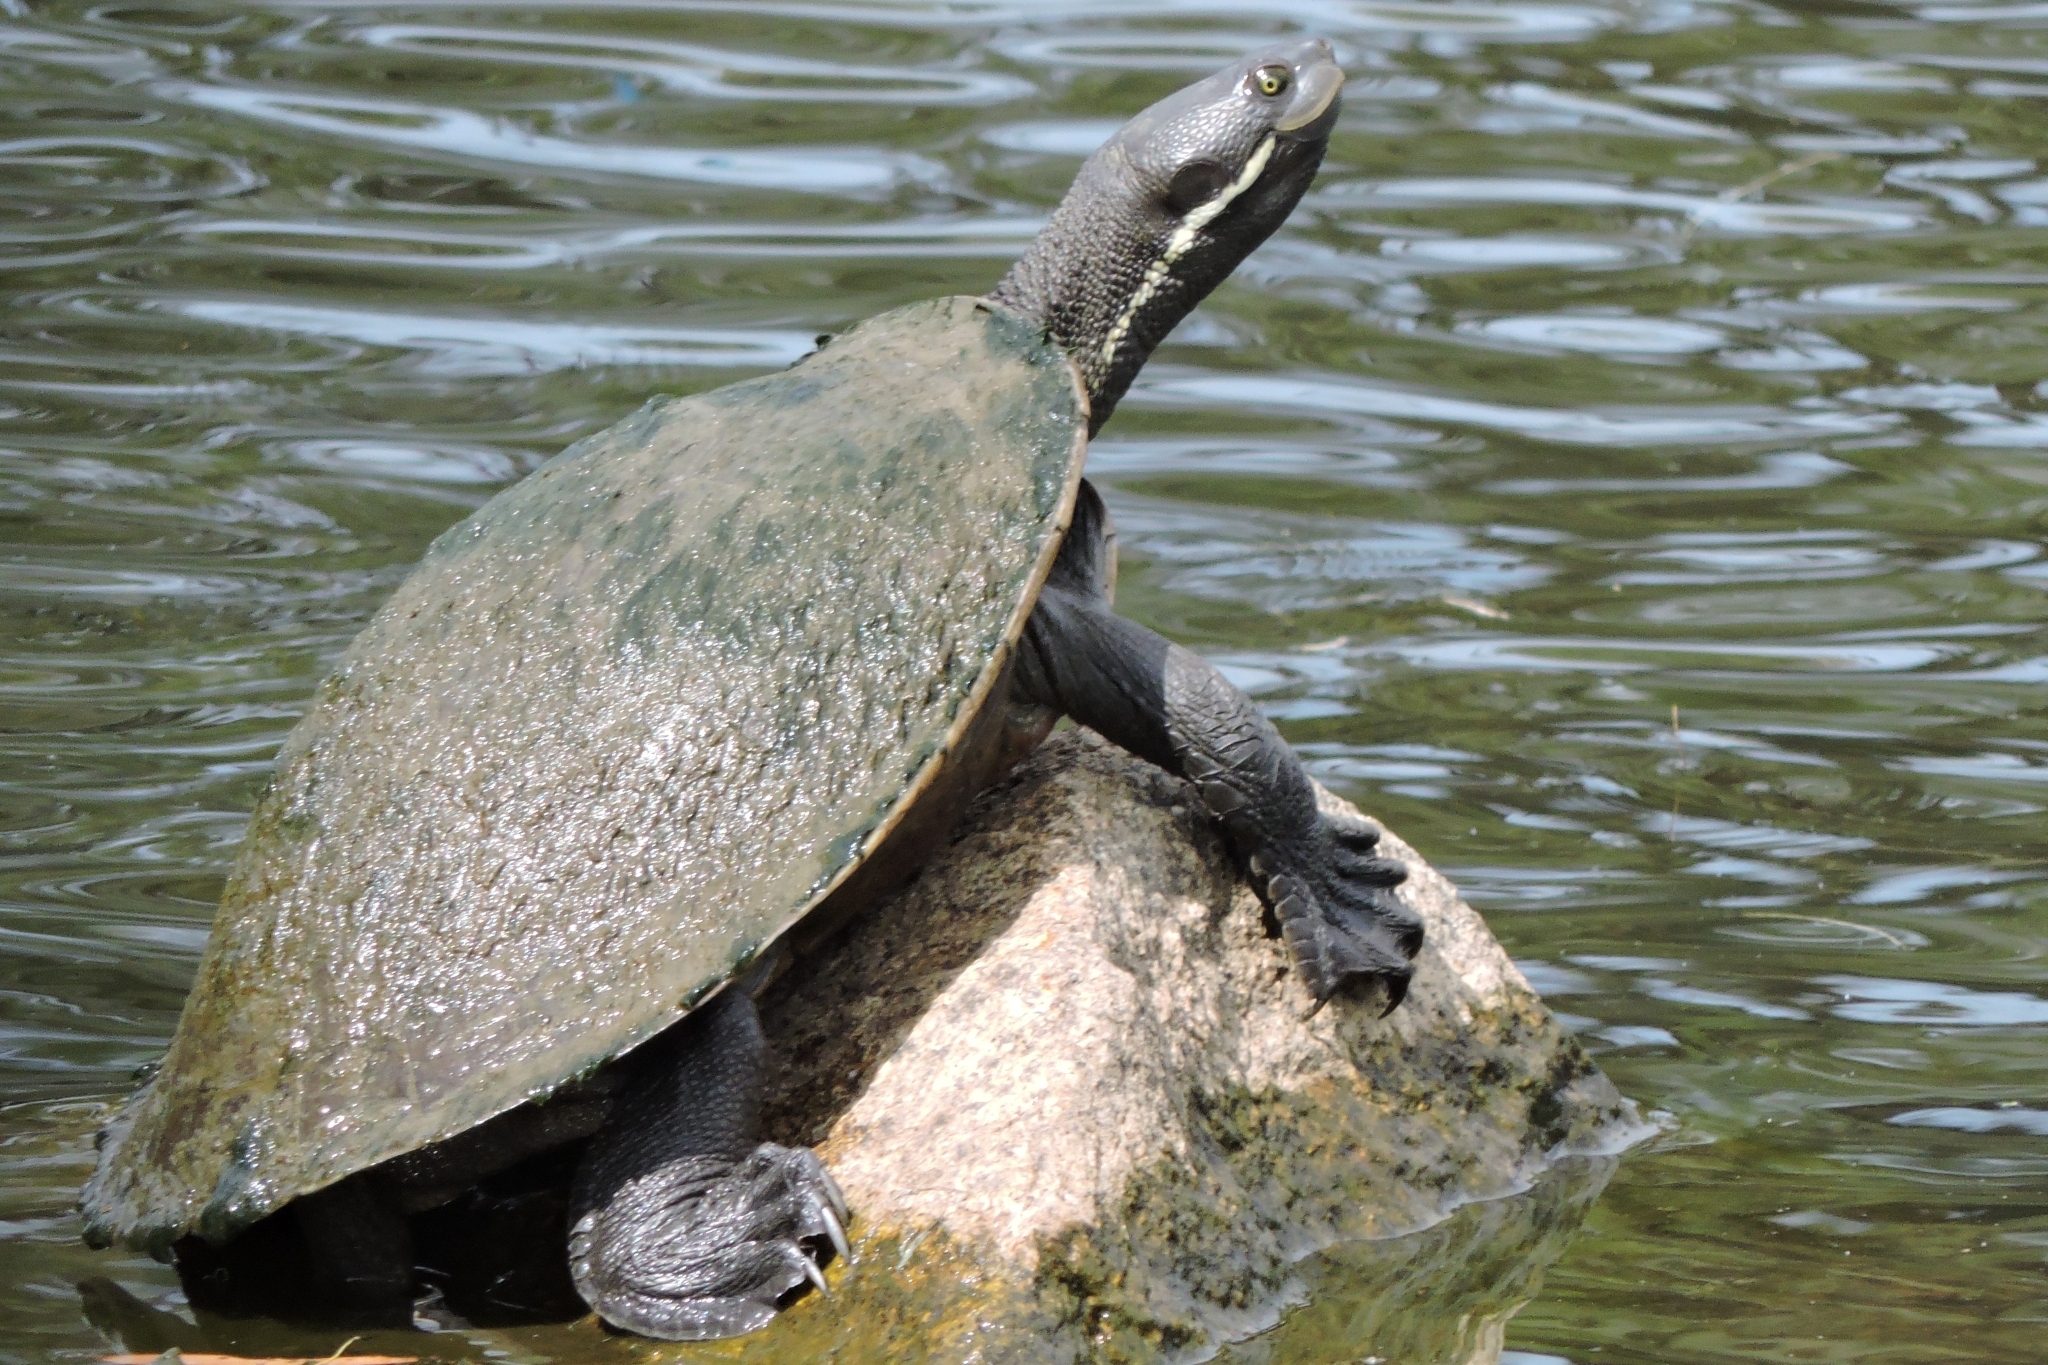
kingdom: Animalia
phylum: Chordata
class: Testudines
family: Chelidae
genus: Emydura
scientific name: Emydura macquarii
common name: Murray river turtle
